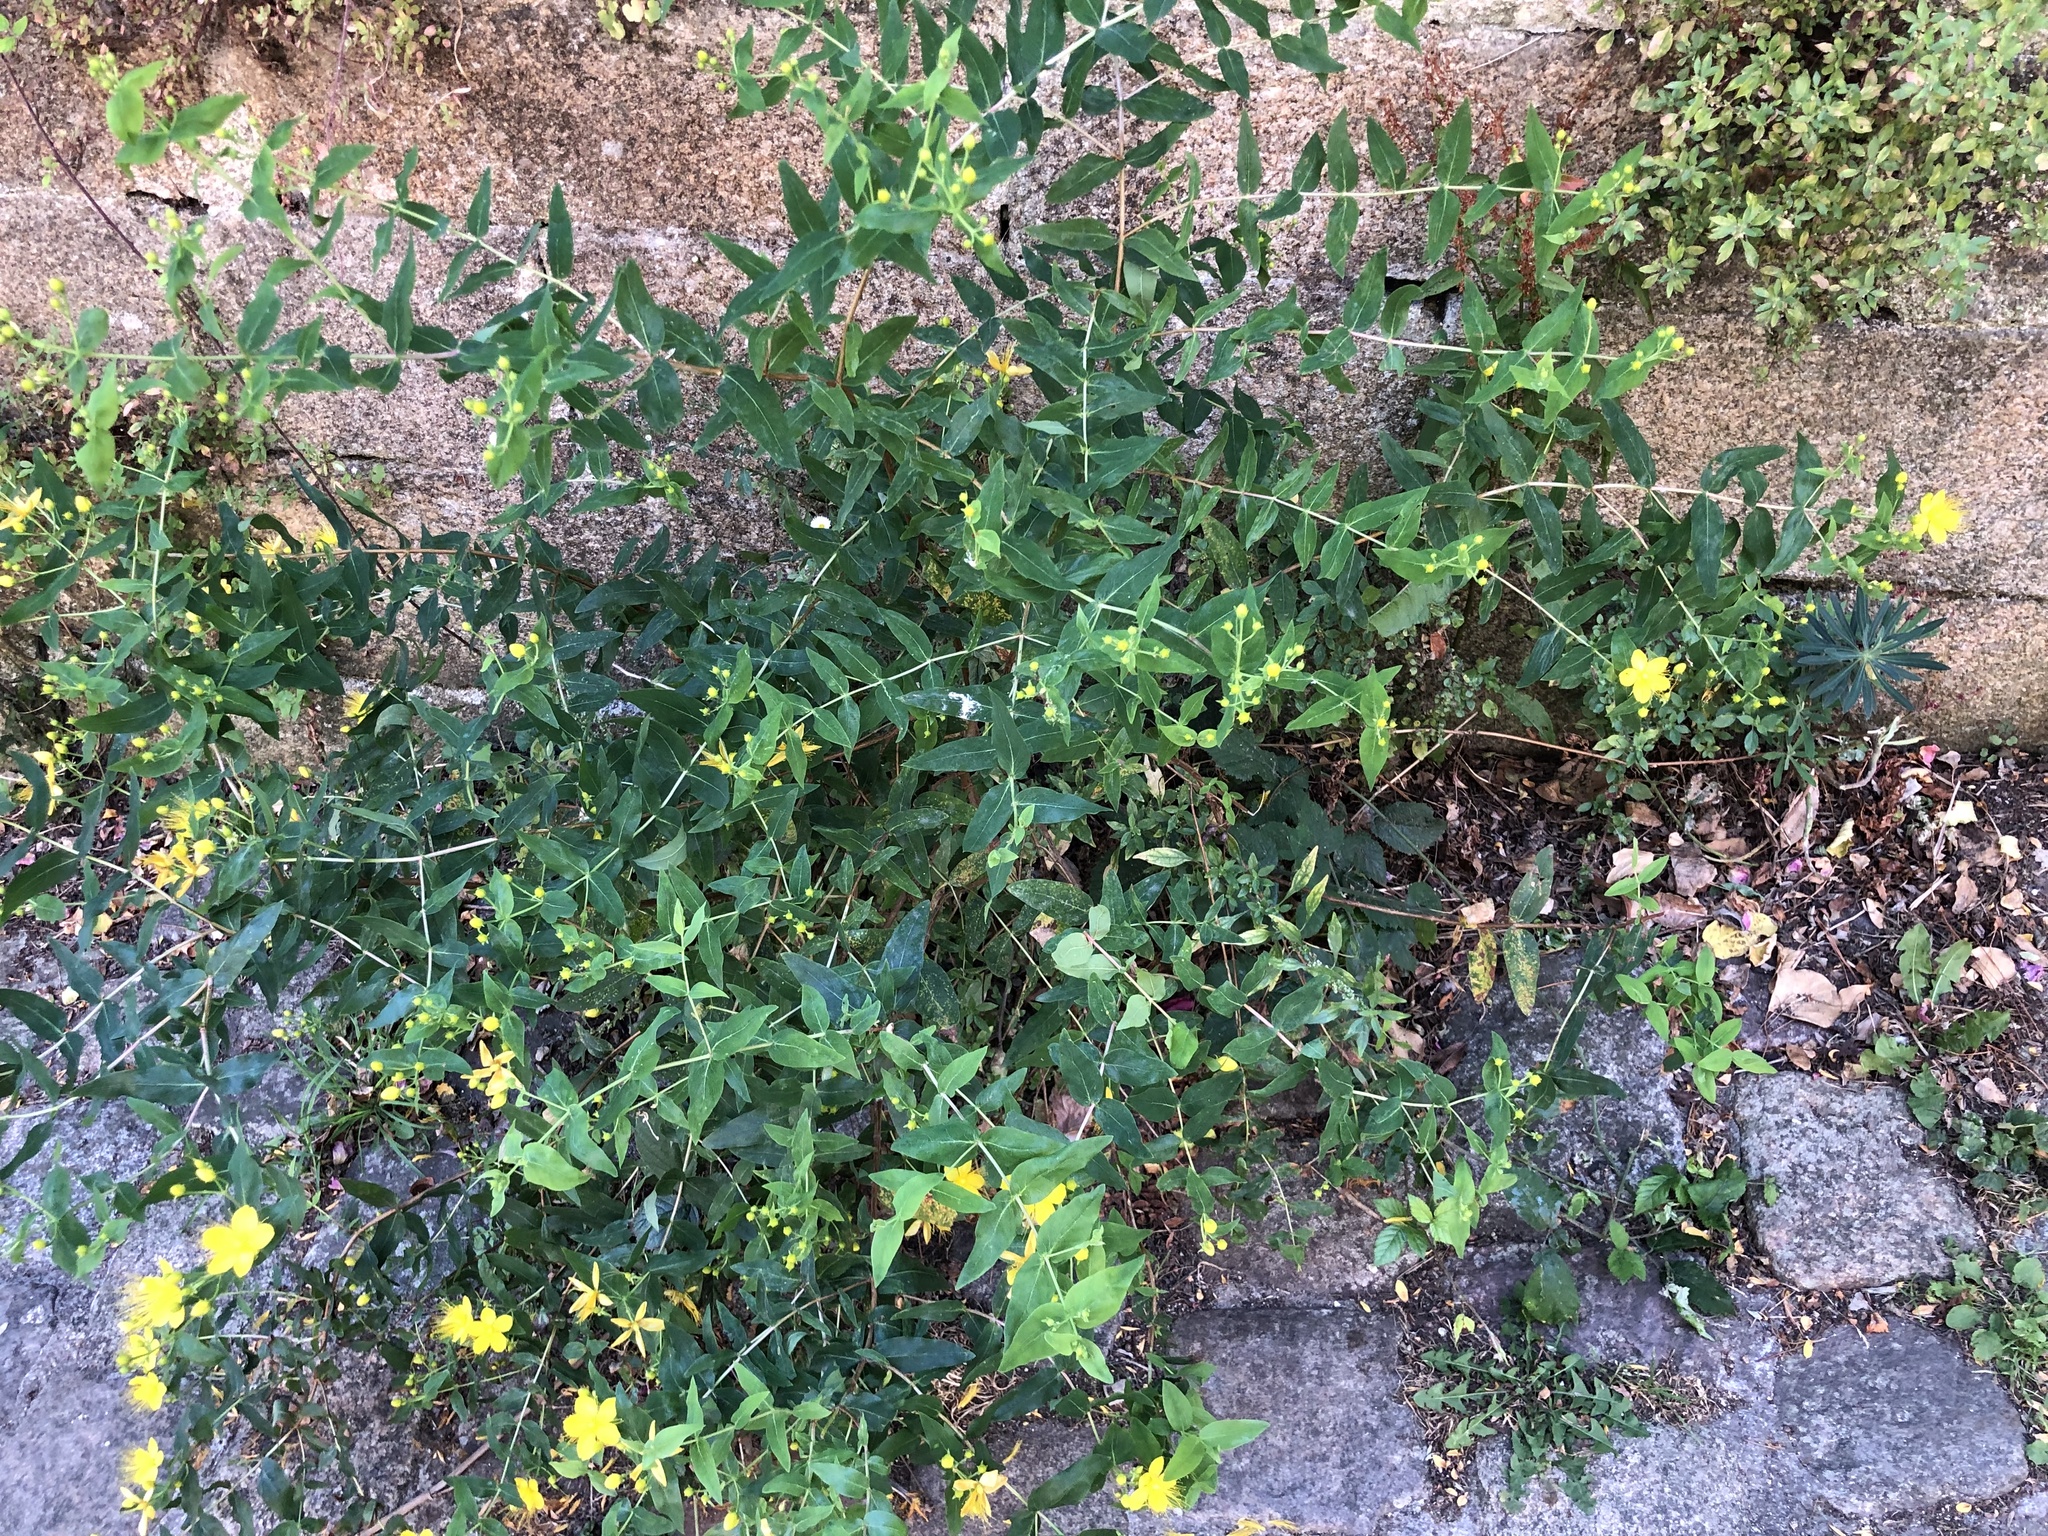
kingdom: Plantae
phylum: Tracheophyta
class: Magnoliopsida
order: Malpighiales
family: Hypericaceae
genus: Hypericum
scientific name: Hypericum calycinum
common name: Rose-of-sharon
